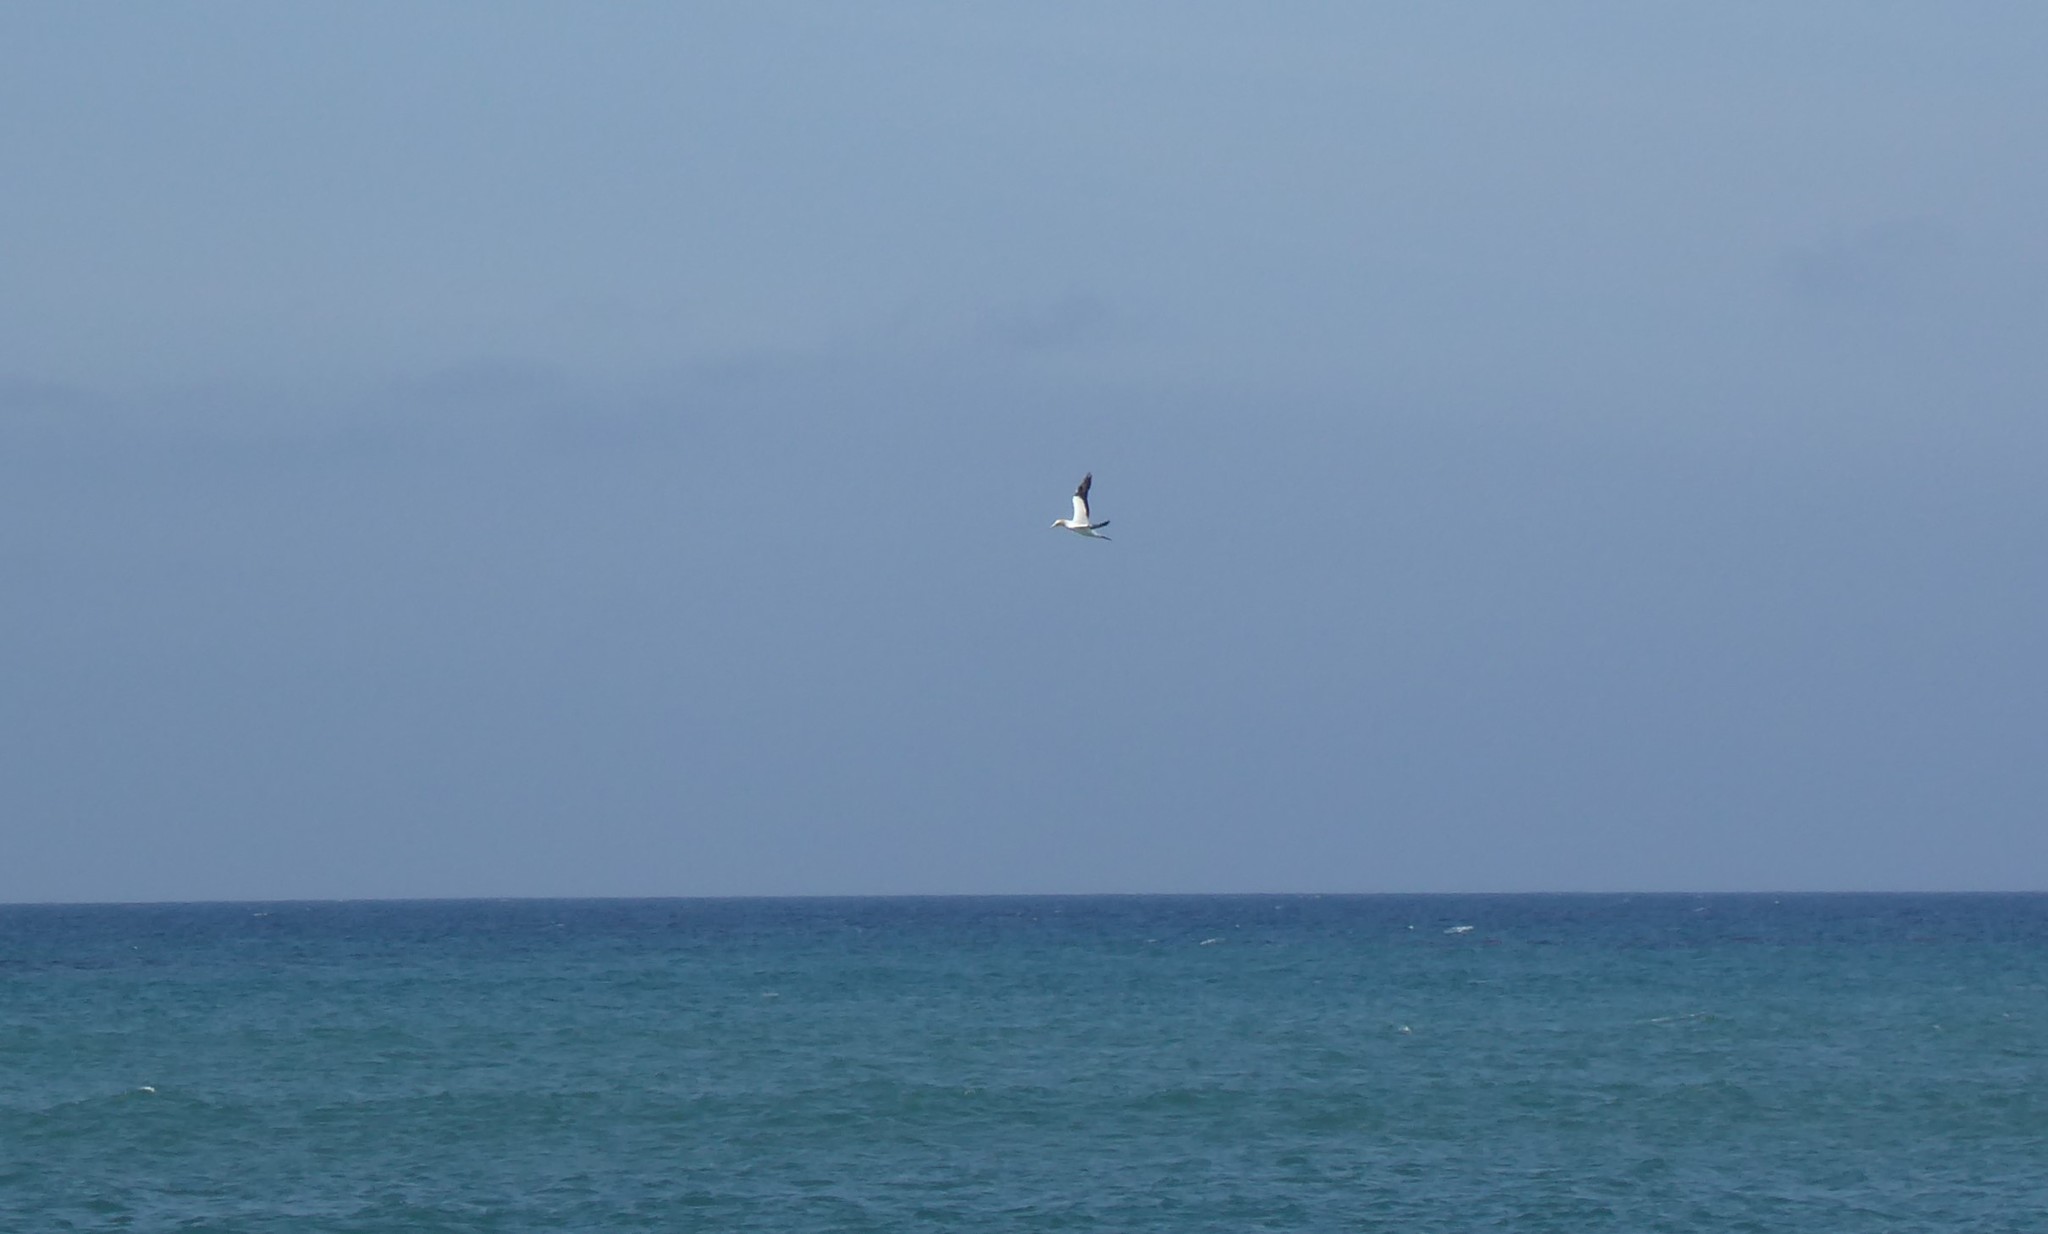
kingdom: Animalia
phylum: Chordata
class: Aves
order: Suliformes
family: Sulidae
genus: Morus
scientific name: Morus serrator
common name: Australasian gannet
